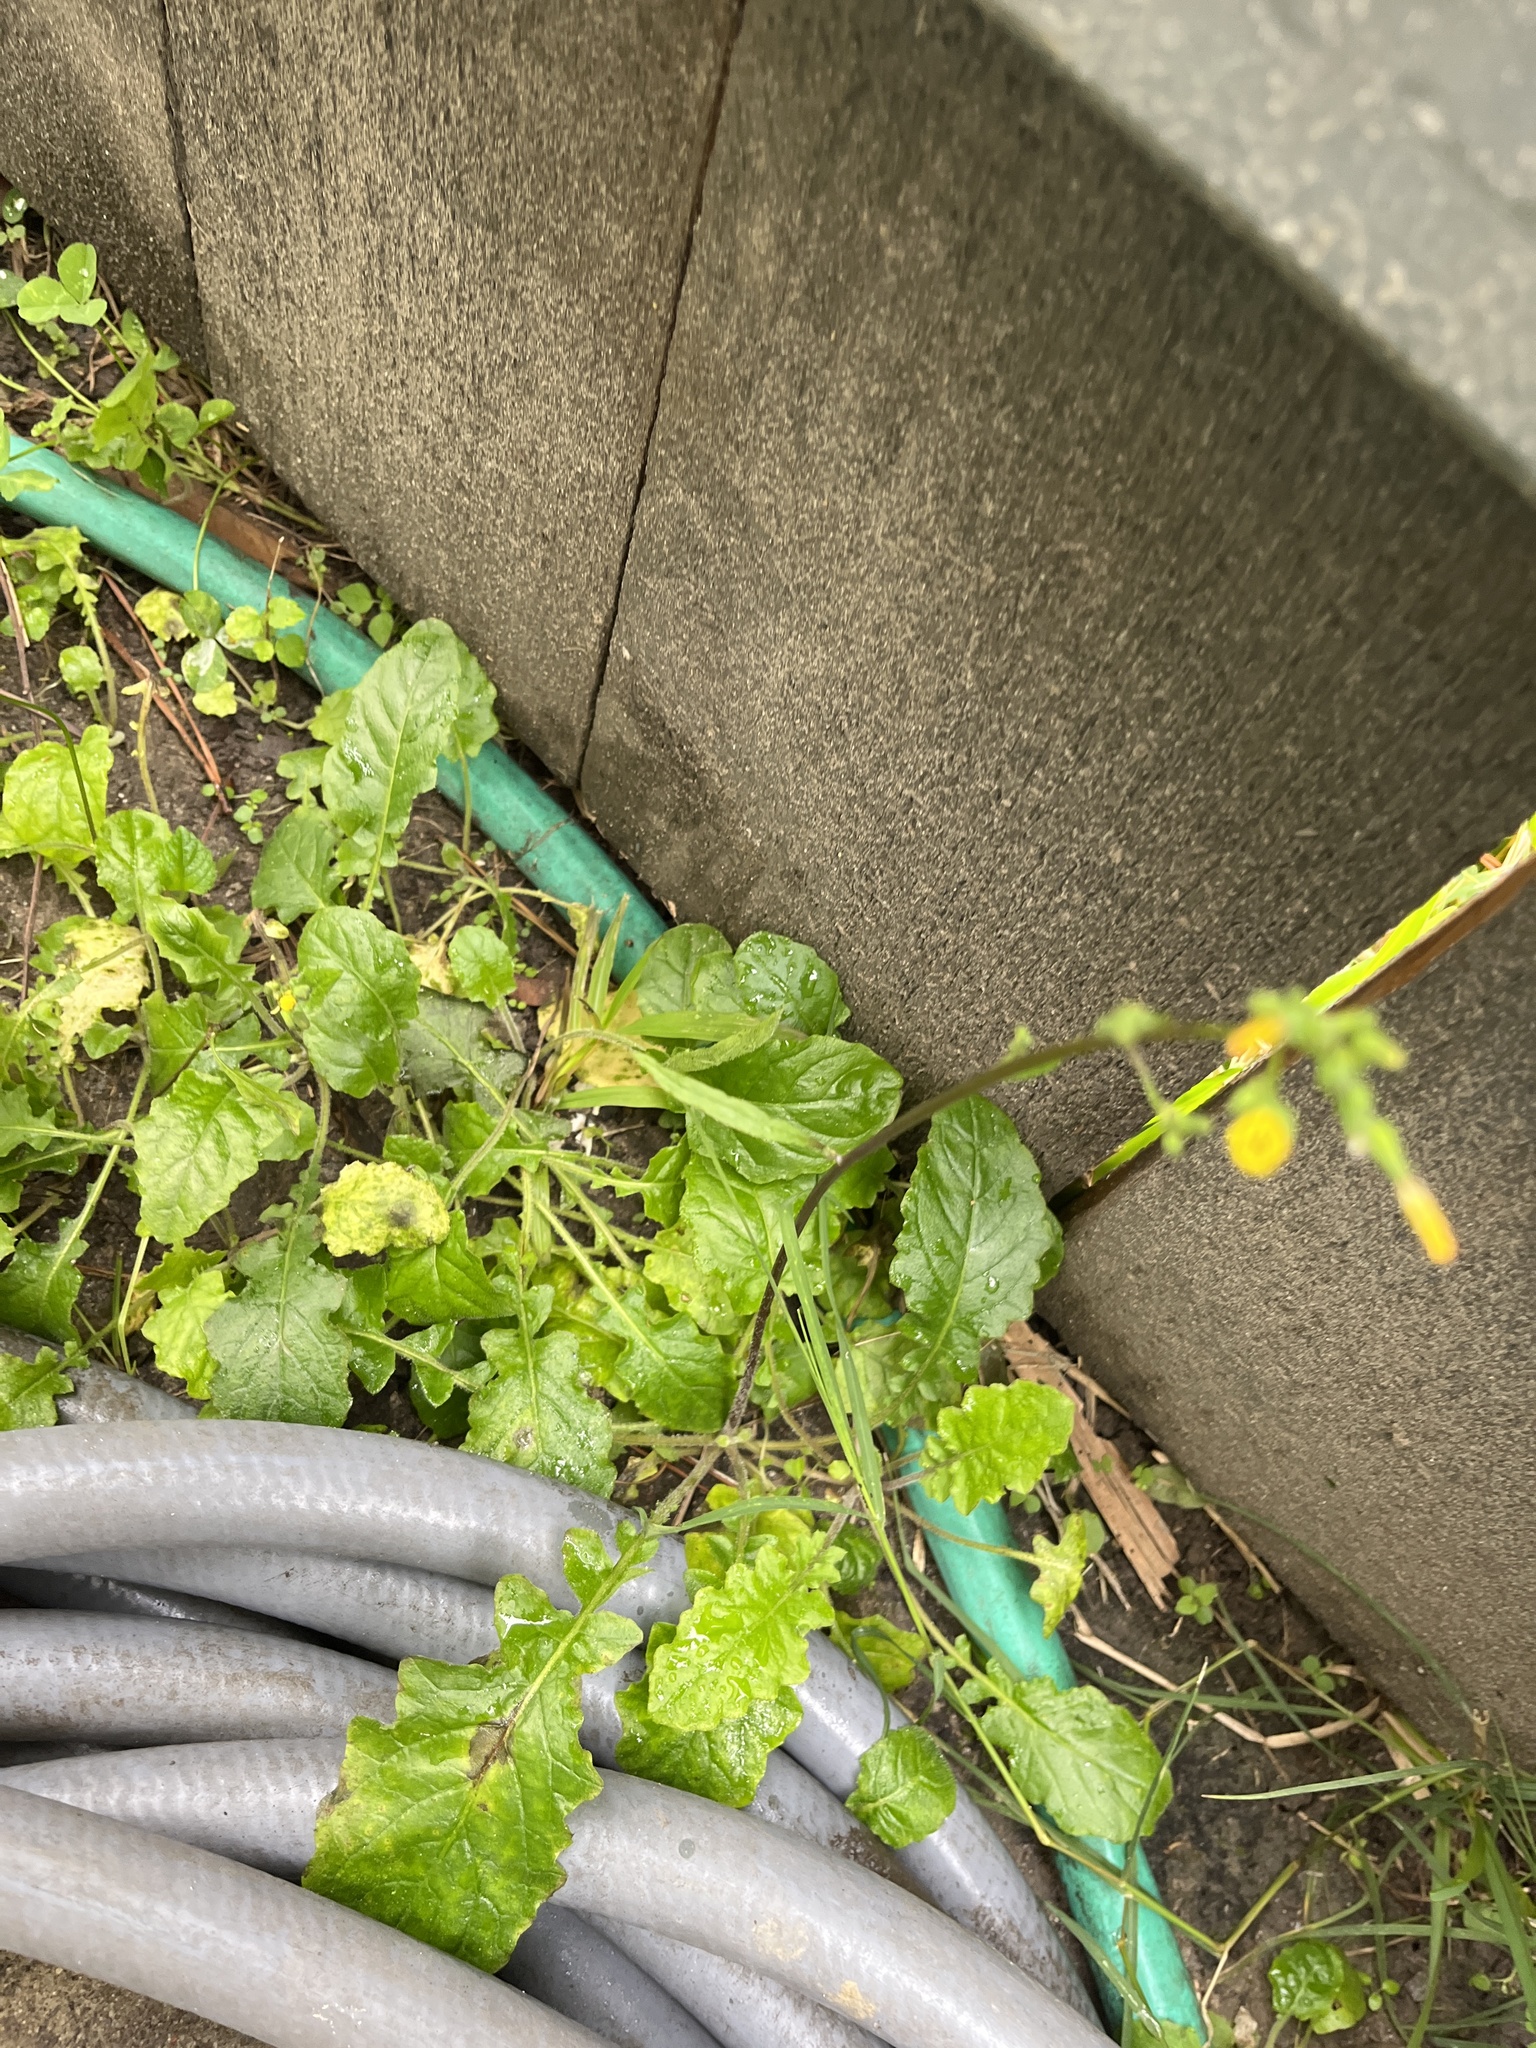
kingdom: Plantae
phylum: Tracheophyta
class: Magnoliopsida
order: Asterales
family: Asteraceae
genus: Youngia
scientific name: Youngia japonica
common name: Oriental false hawksbeard
